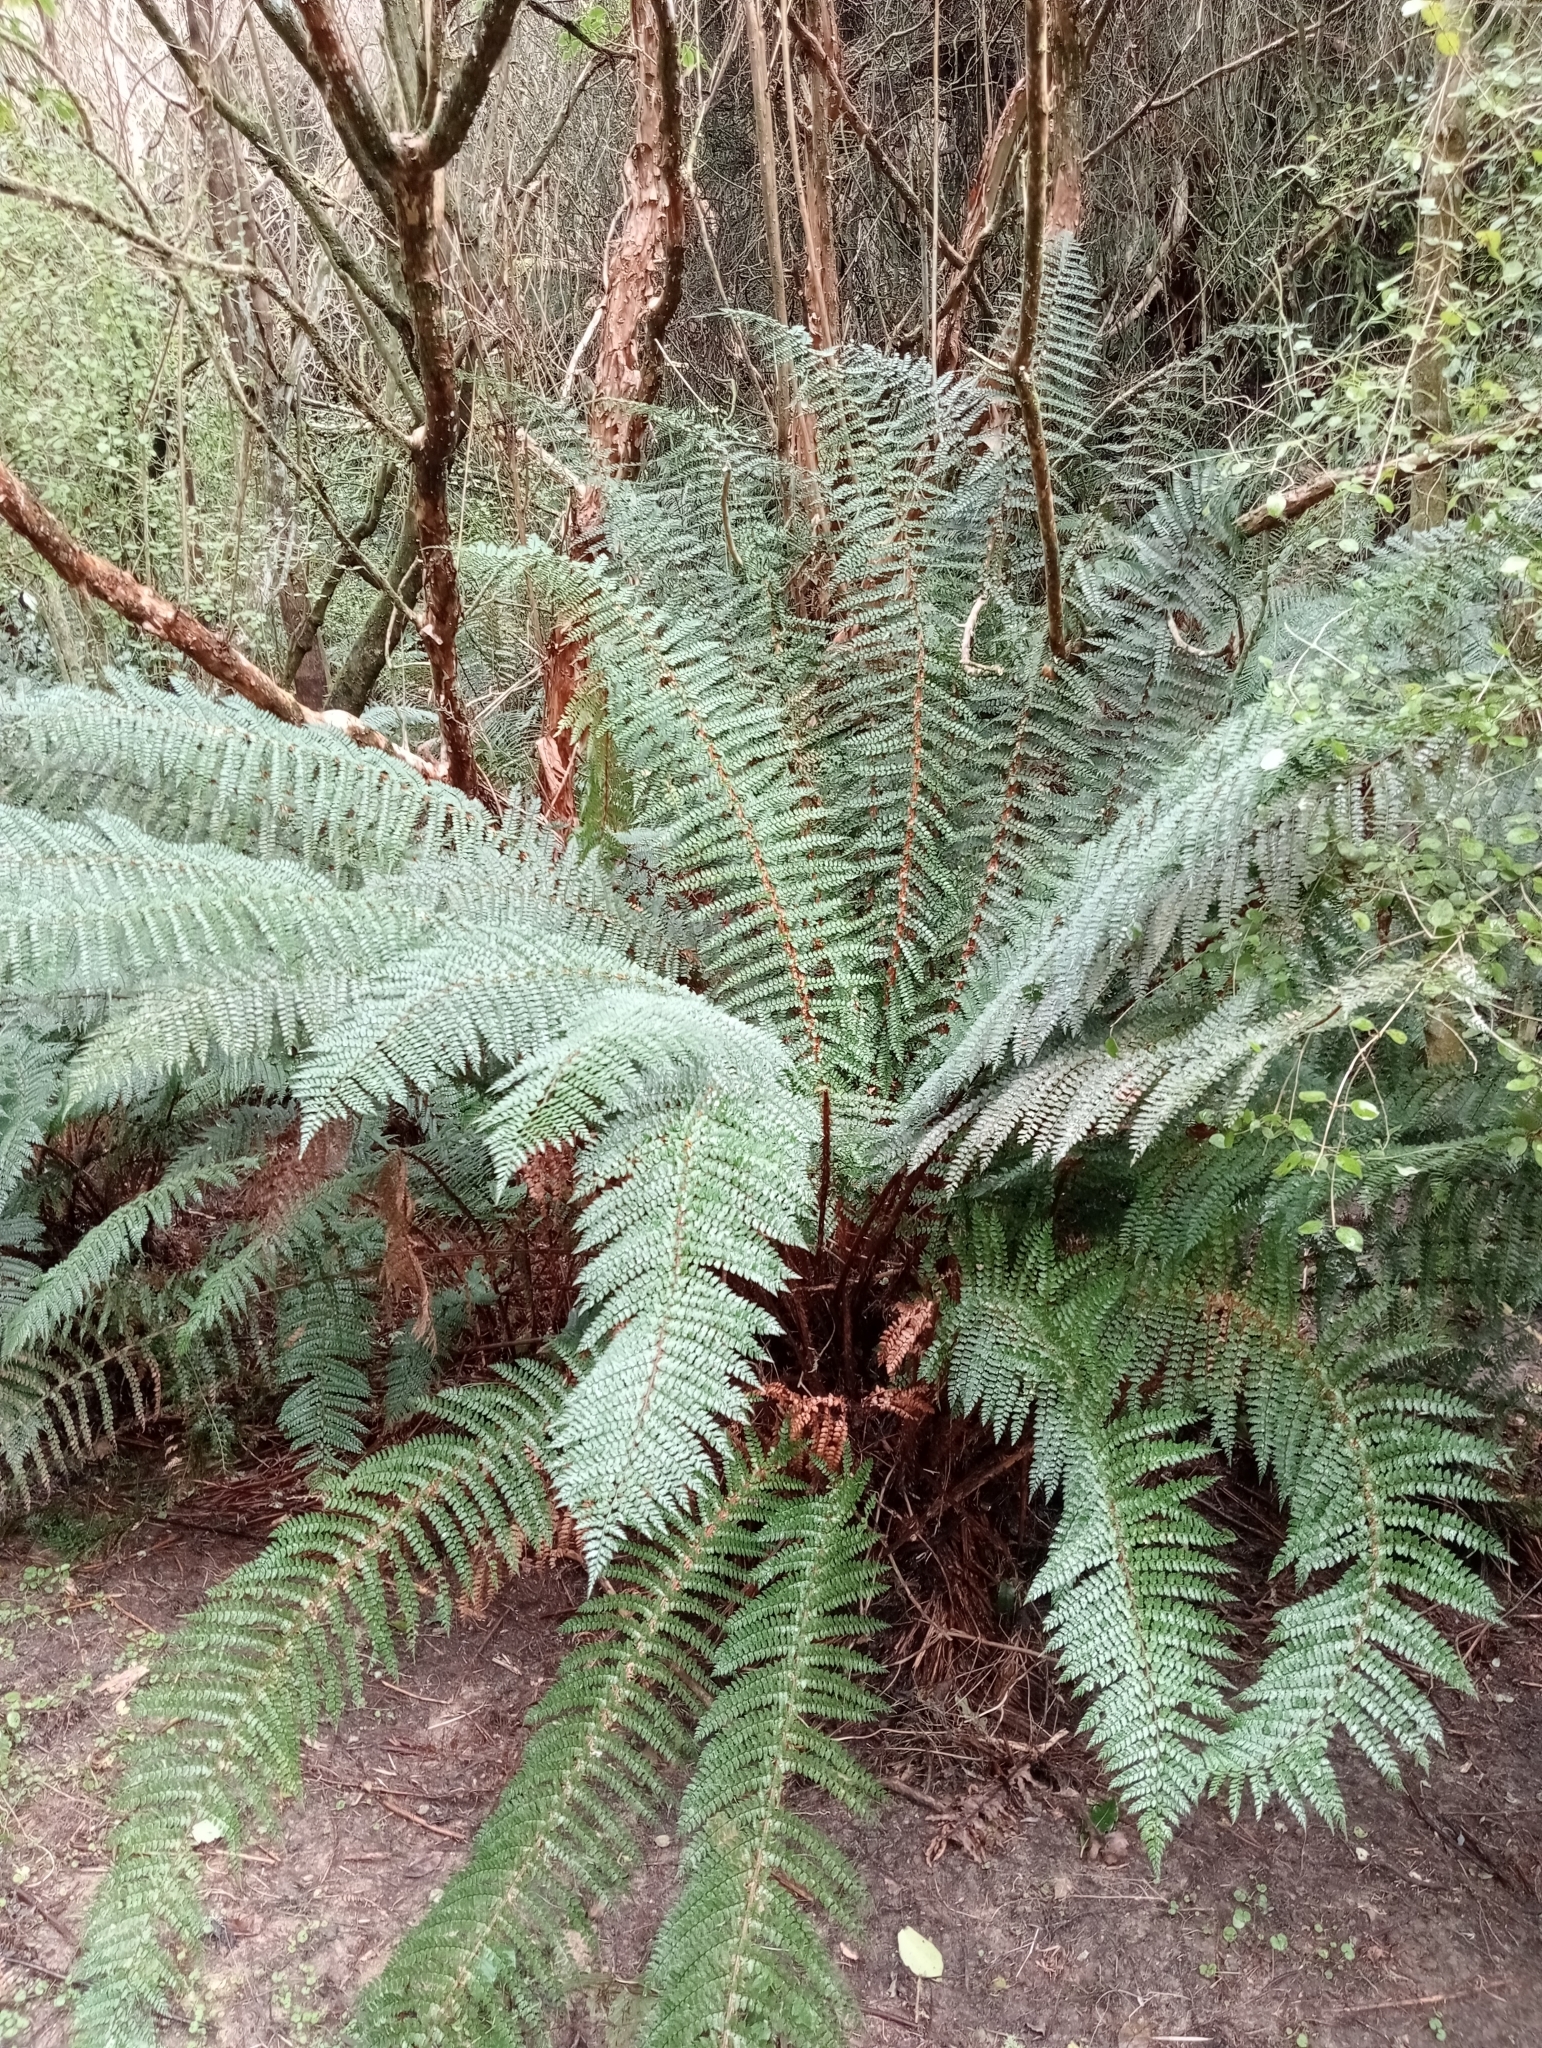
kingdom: Plantae
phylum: Tracheophyta
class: Polypodiopsida
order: Polypodiales
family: Dryopteridaceae
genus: Polystichum
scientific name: Polystichum vestitum
